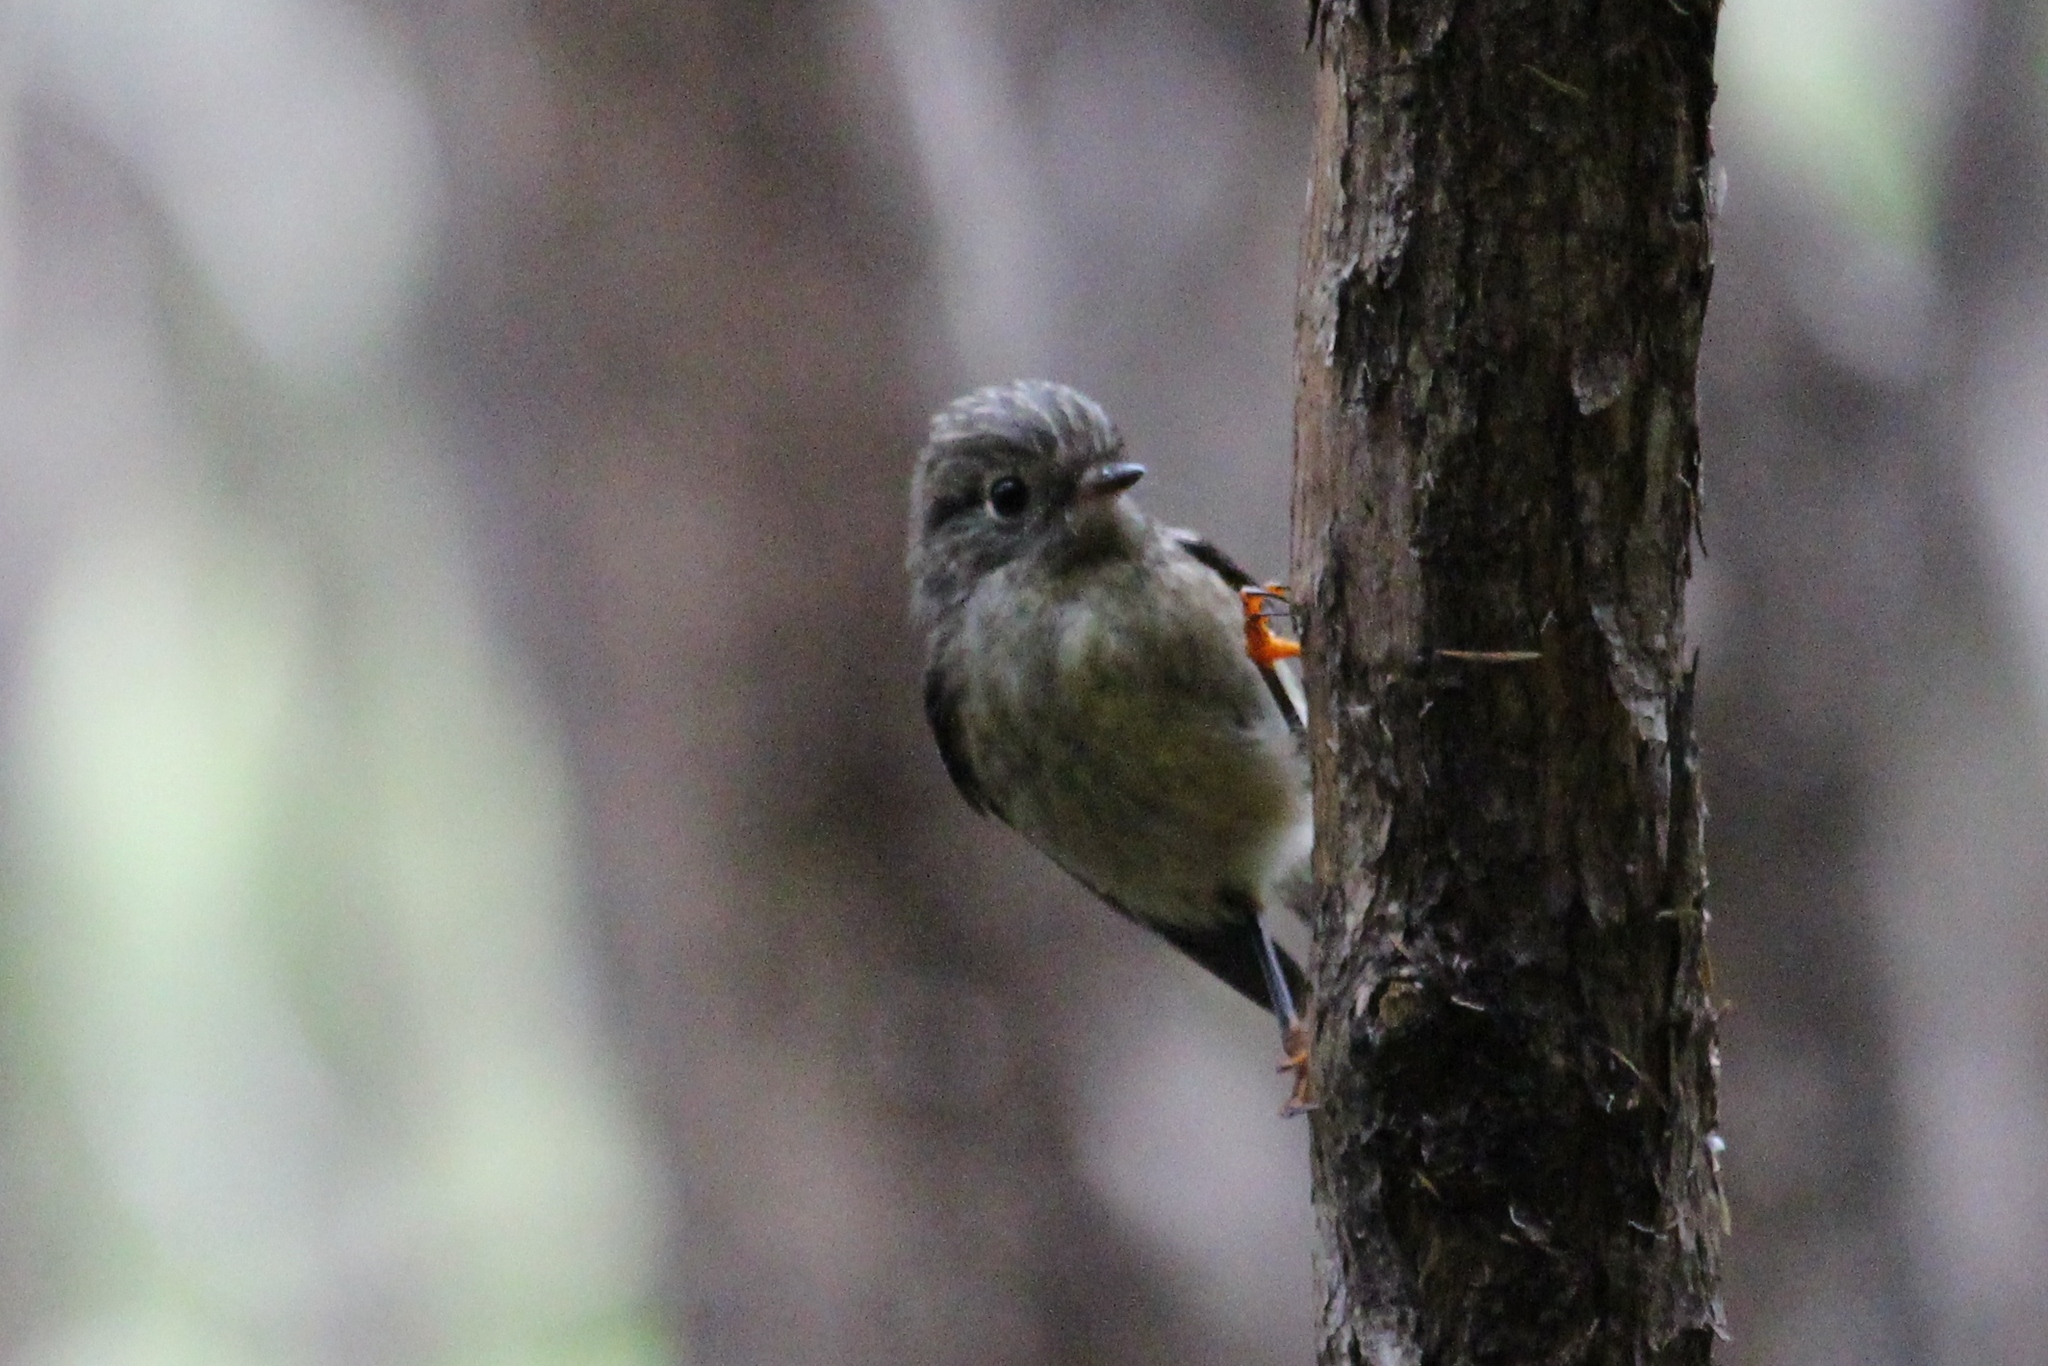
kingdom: Animalia
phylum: Chordata
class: Aves
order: Passeriformes
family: Petroicidae
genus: Petroica
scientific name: Petroica macrocephala
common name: Tomtit
